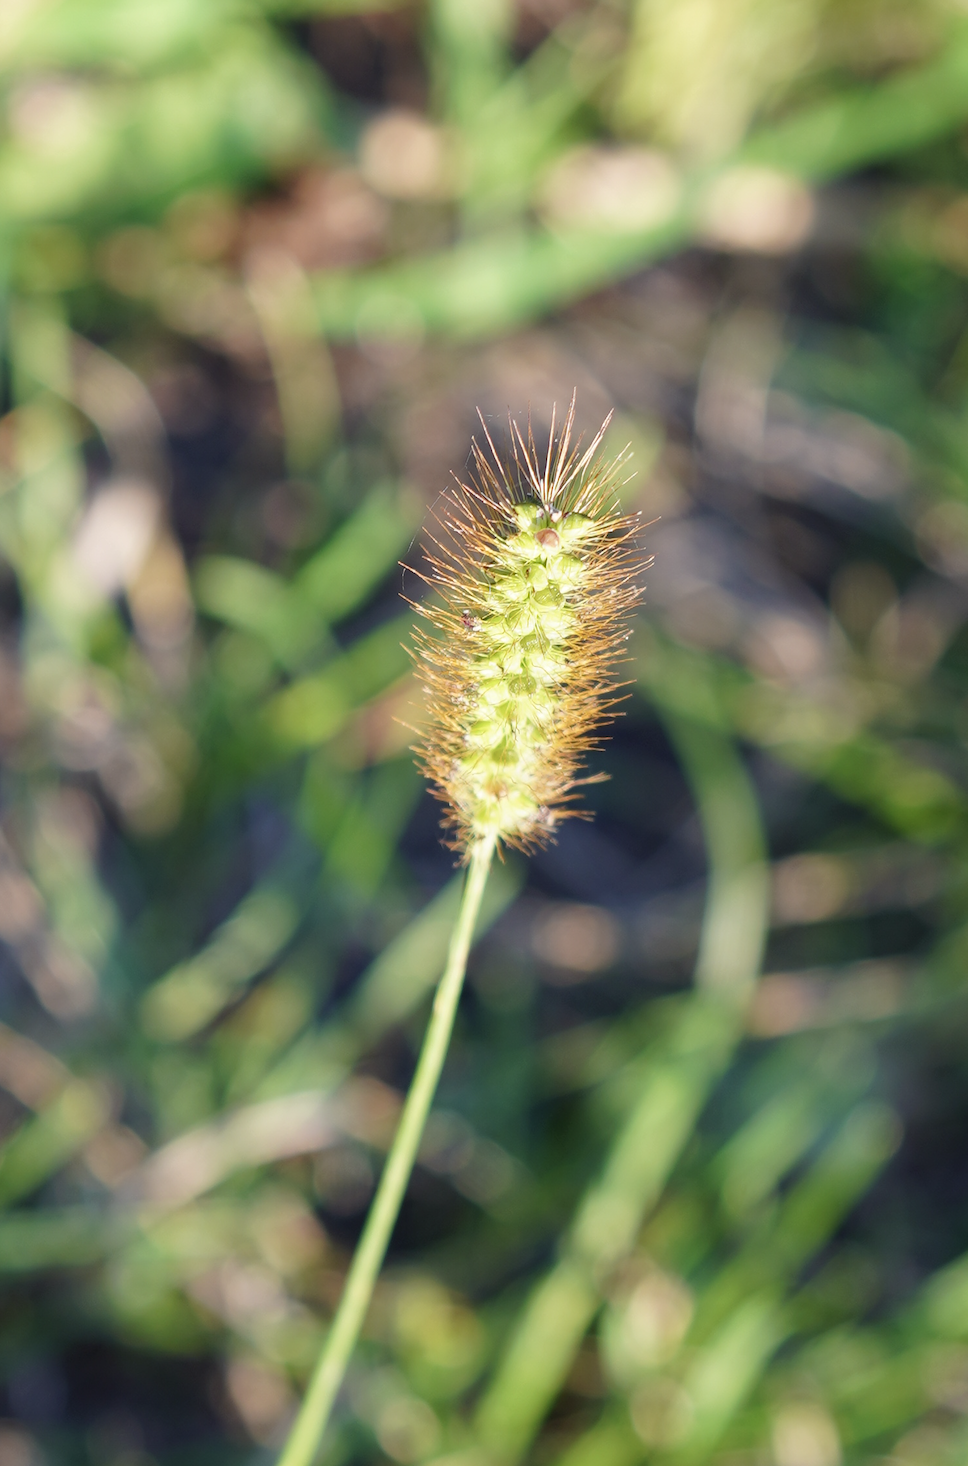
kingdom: Plantae
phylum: Tracheophyta
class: Liliopsida
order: Poales
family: Poaceae
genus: Setaria
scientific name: Setaria pumila
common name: Yellow bristle-grass
